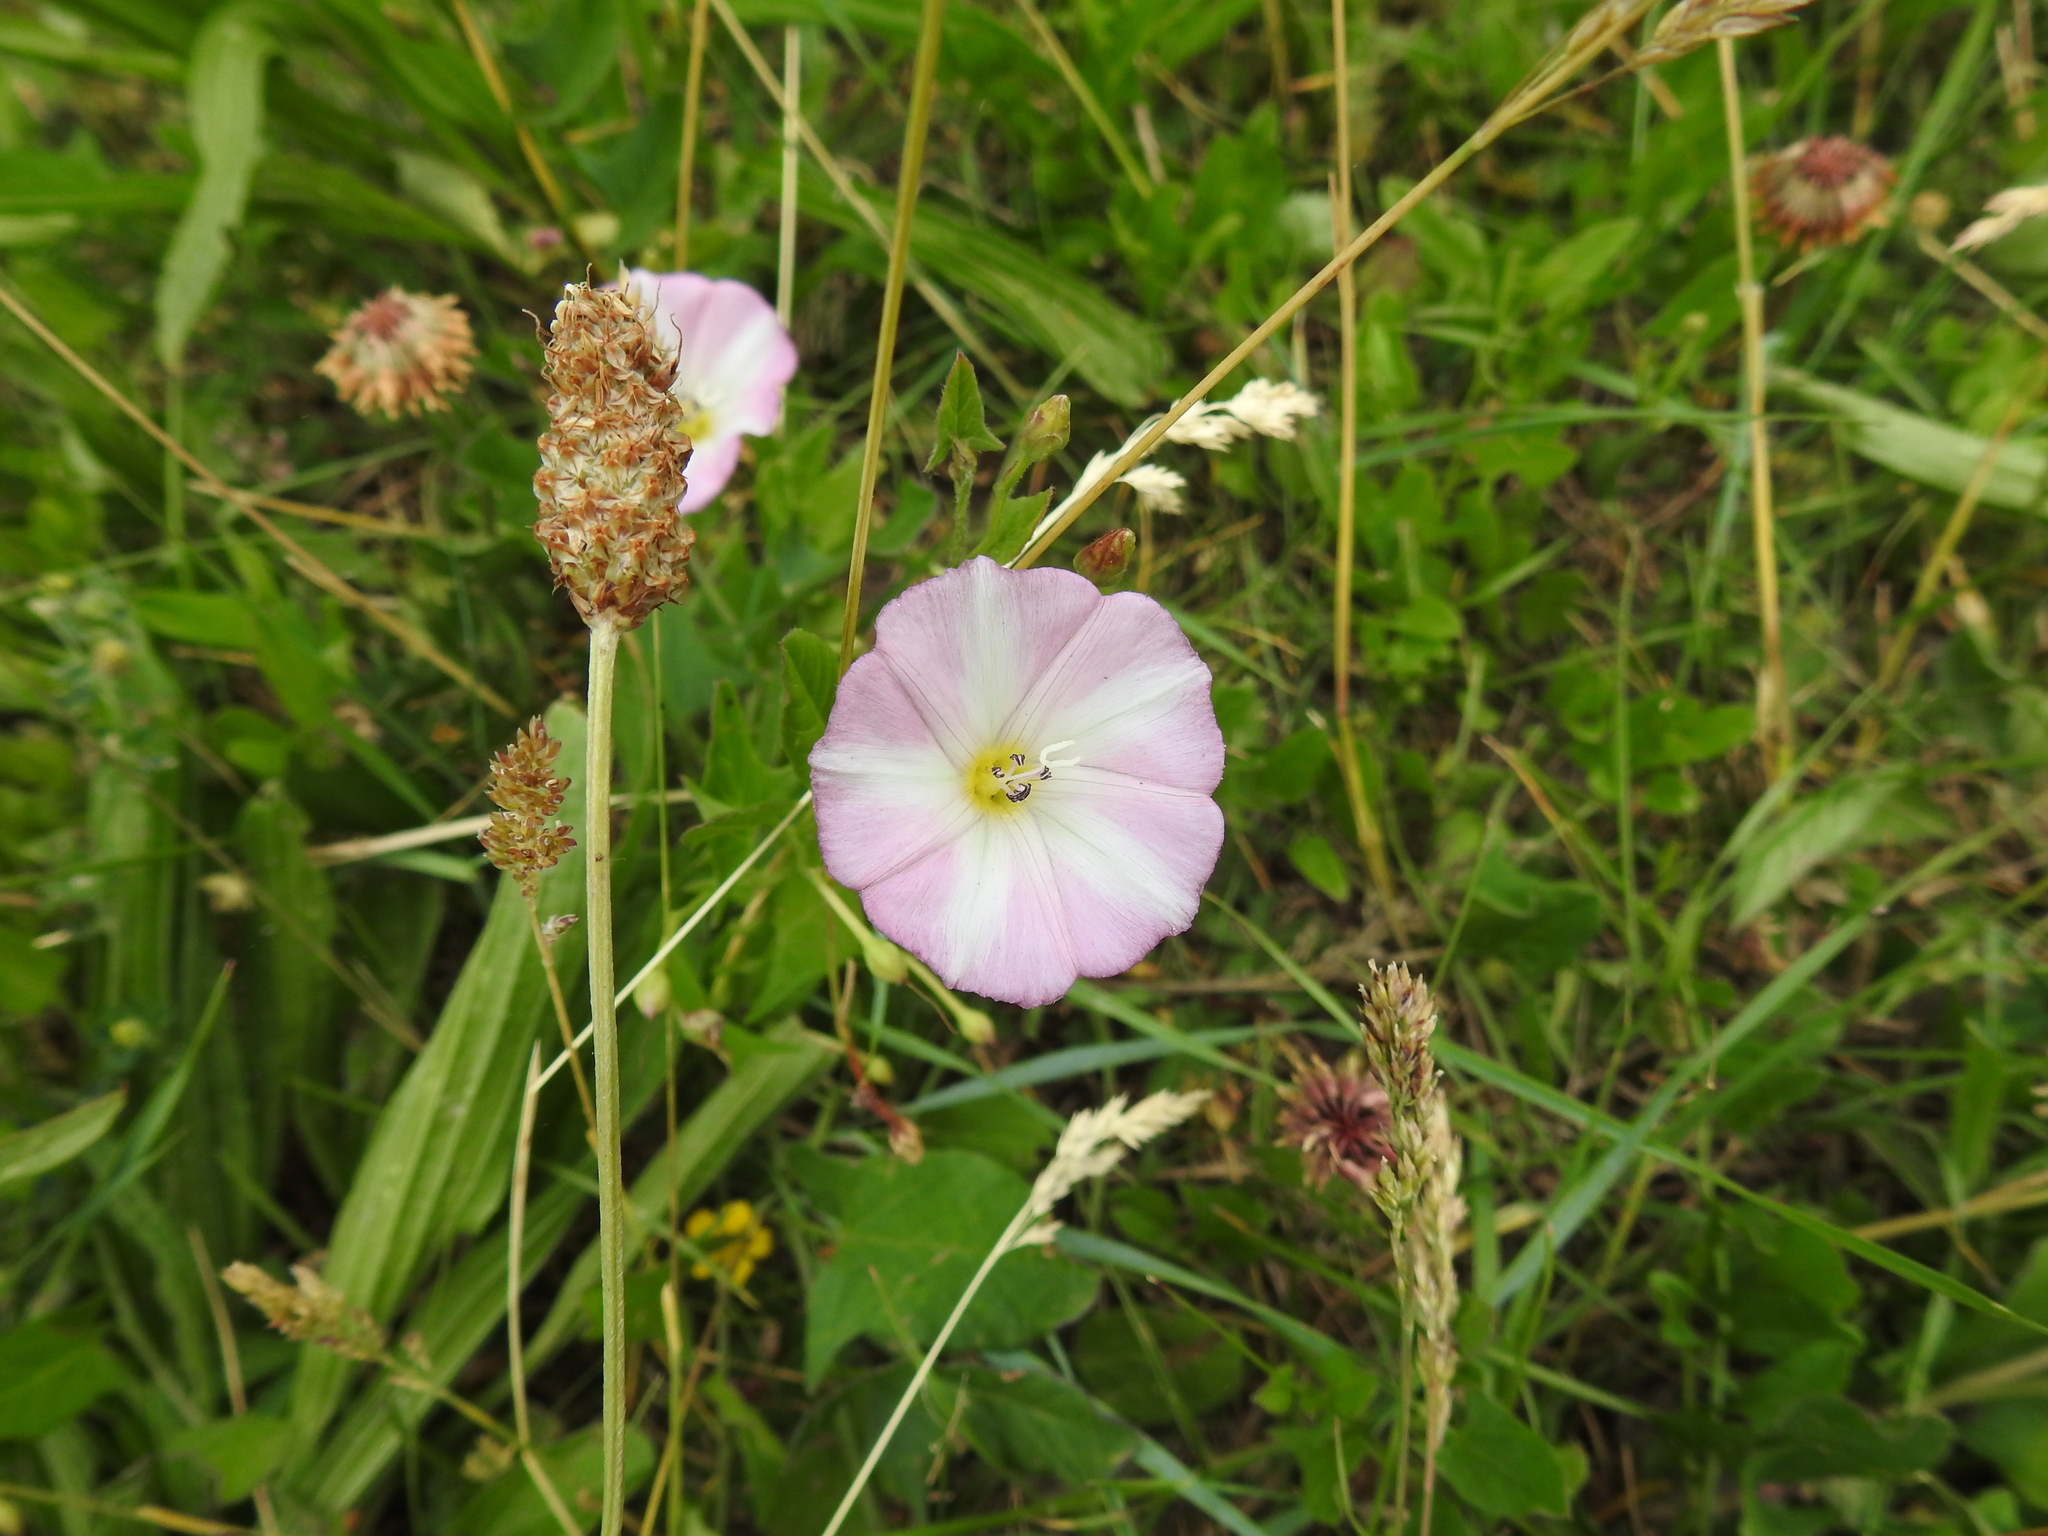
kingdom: Plantae
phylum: Tracheophyta
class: Magnoliopsida
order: Solanales
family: Convolvulaceae
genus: Convolvulus
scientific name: Convolvulus arvensis
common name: Field bindweed
